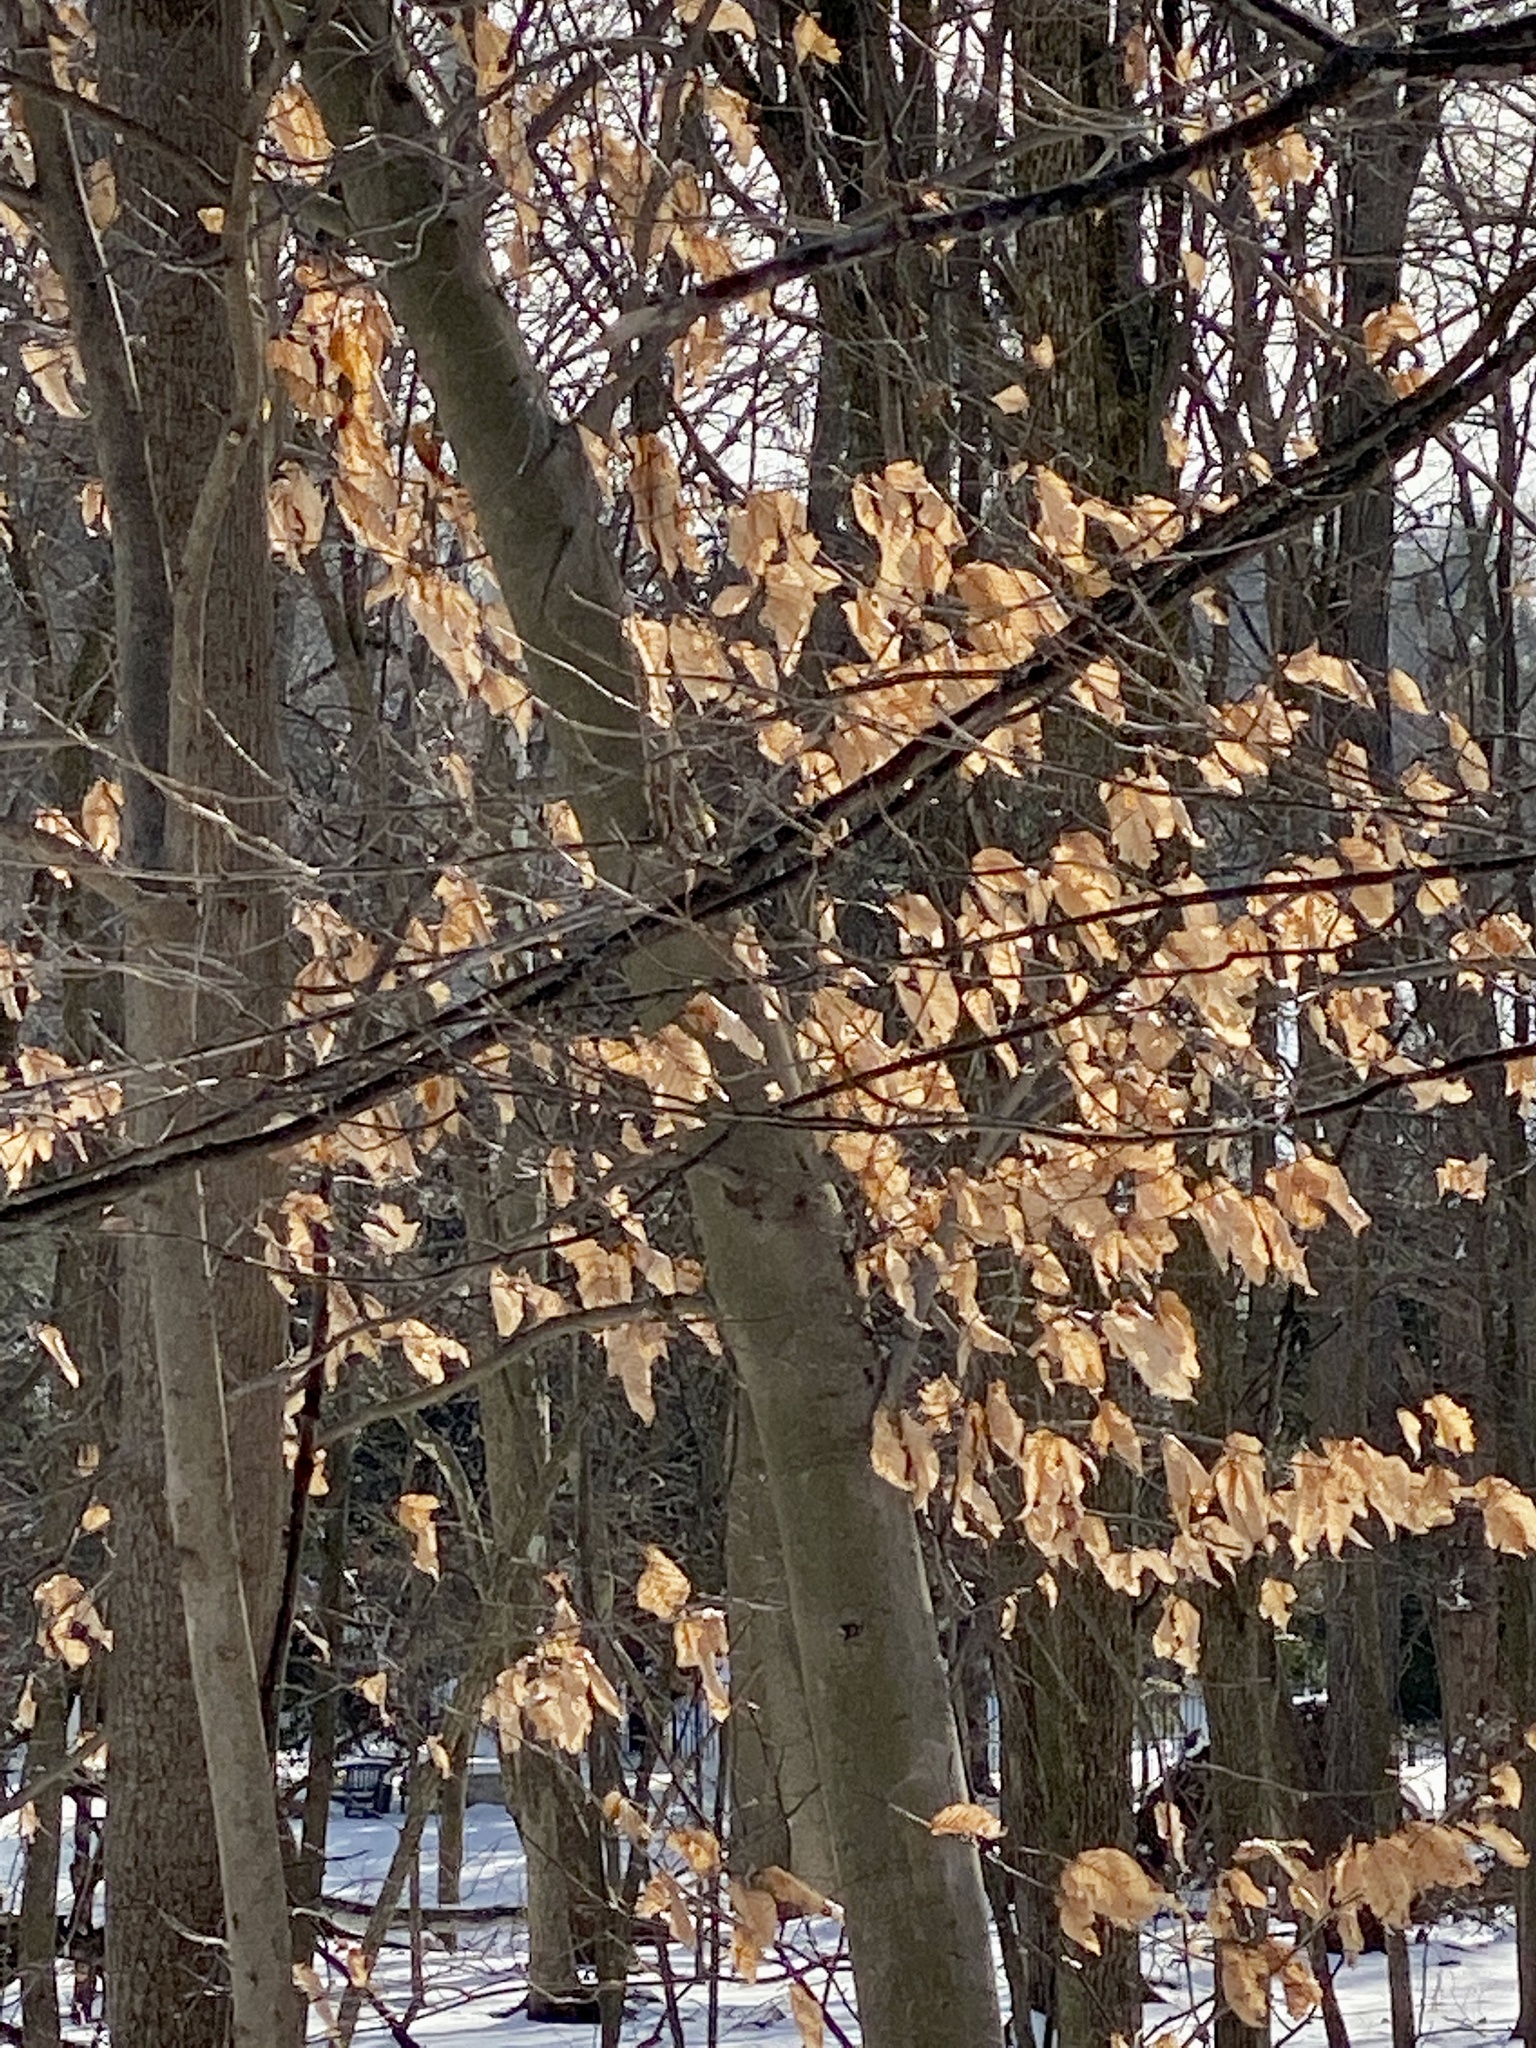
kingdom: Plantae
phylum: Tracheophyta
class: Magnoliopsida
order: Fagales
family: Fagaceae
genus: Fagus
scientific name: Fagus grandifolia
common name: American beech
